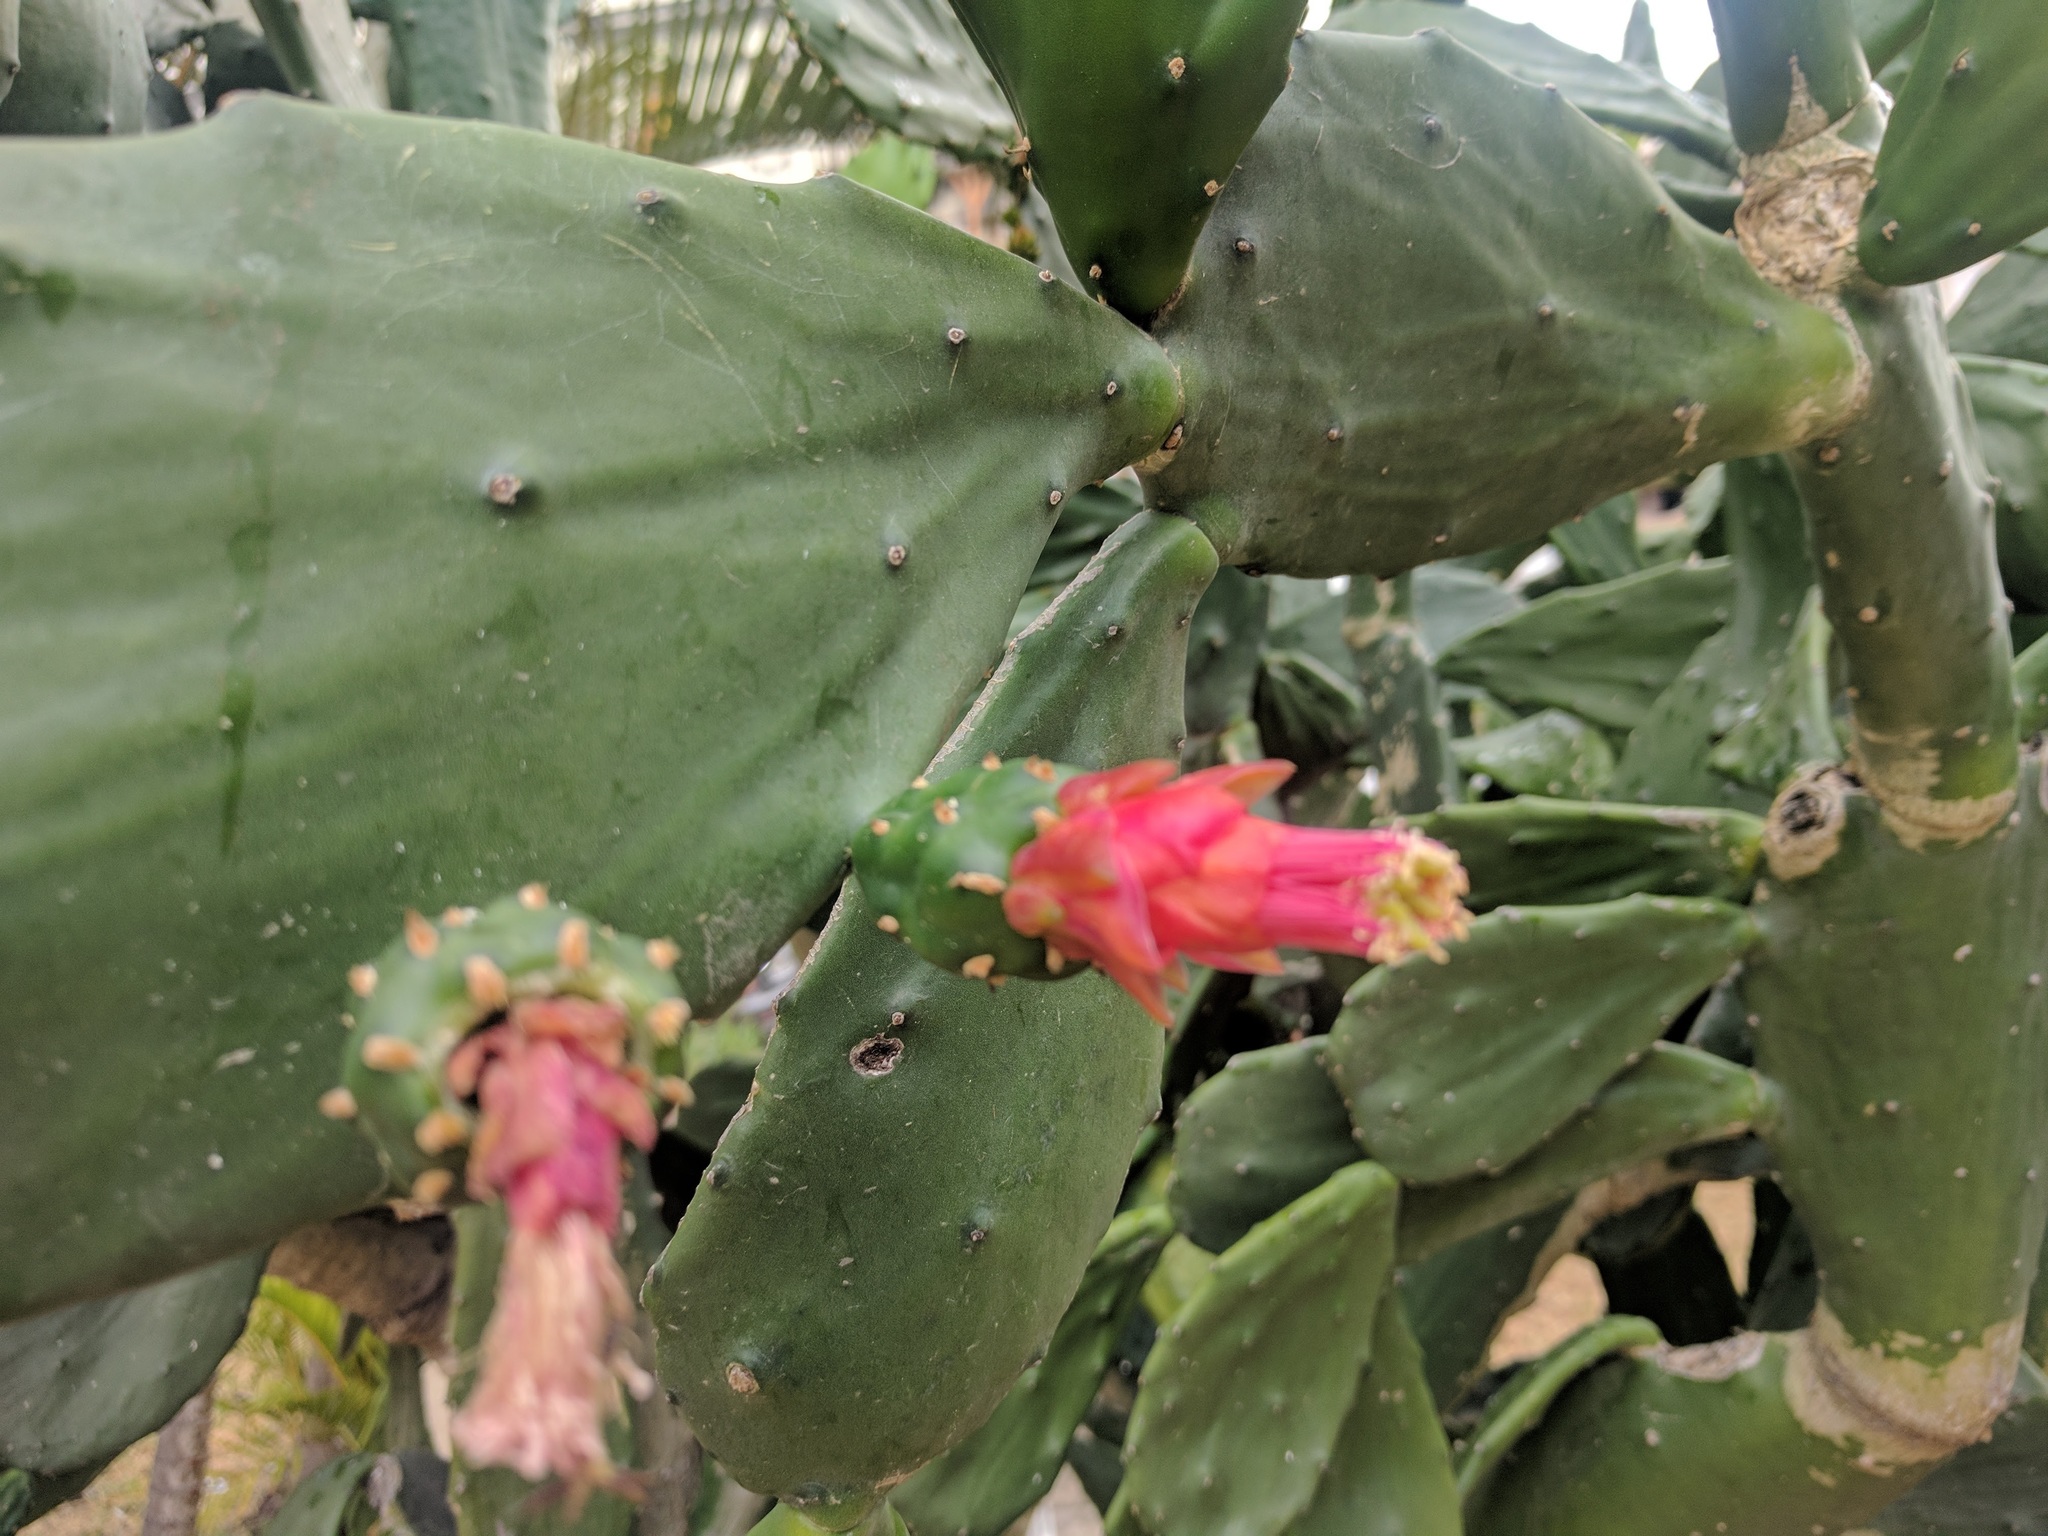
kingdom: Plantae
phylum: Tracheophyta
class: Magnoliopsida
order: Caryophyllales
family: Cactaceae
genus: Opuntia
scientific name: Opuntia cochenillifera
